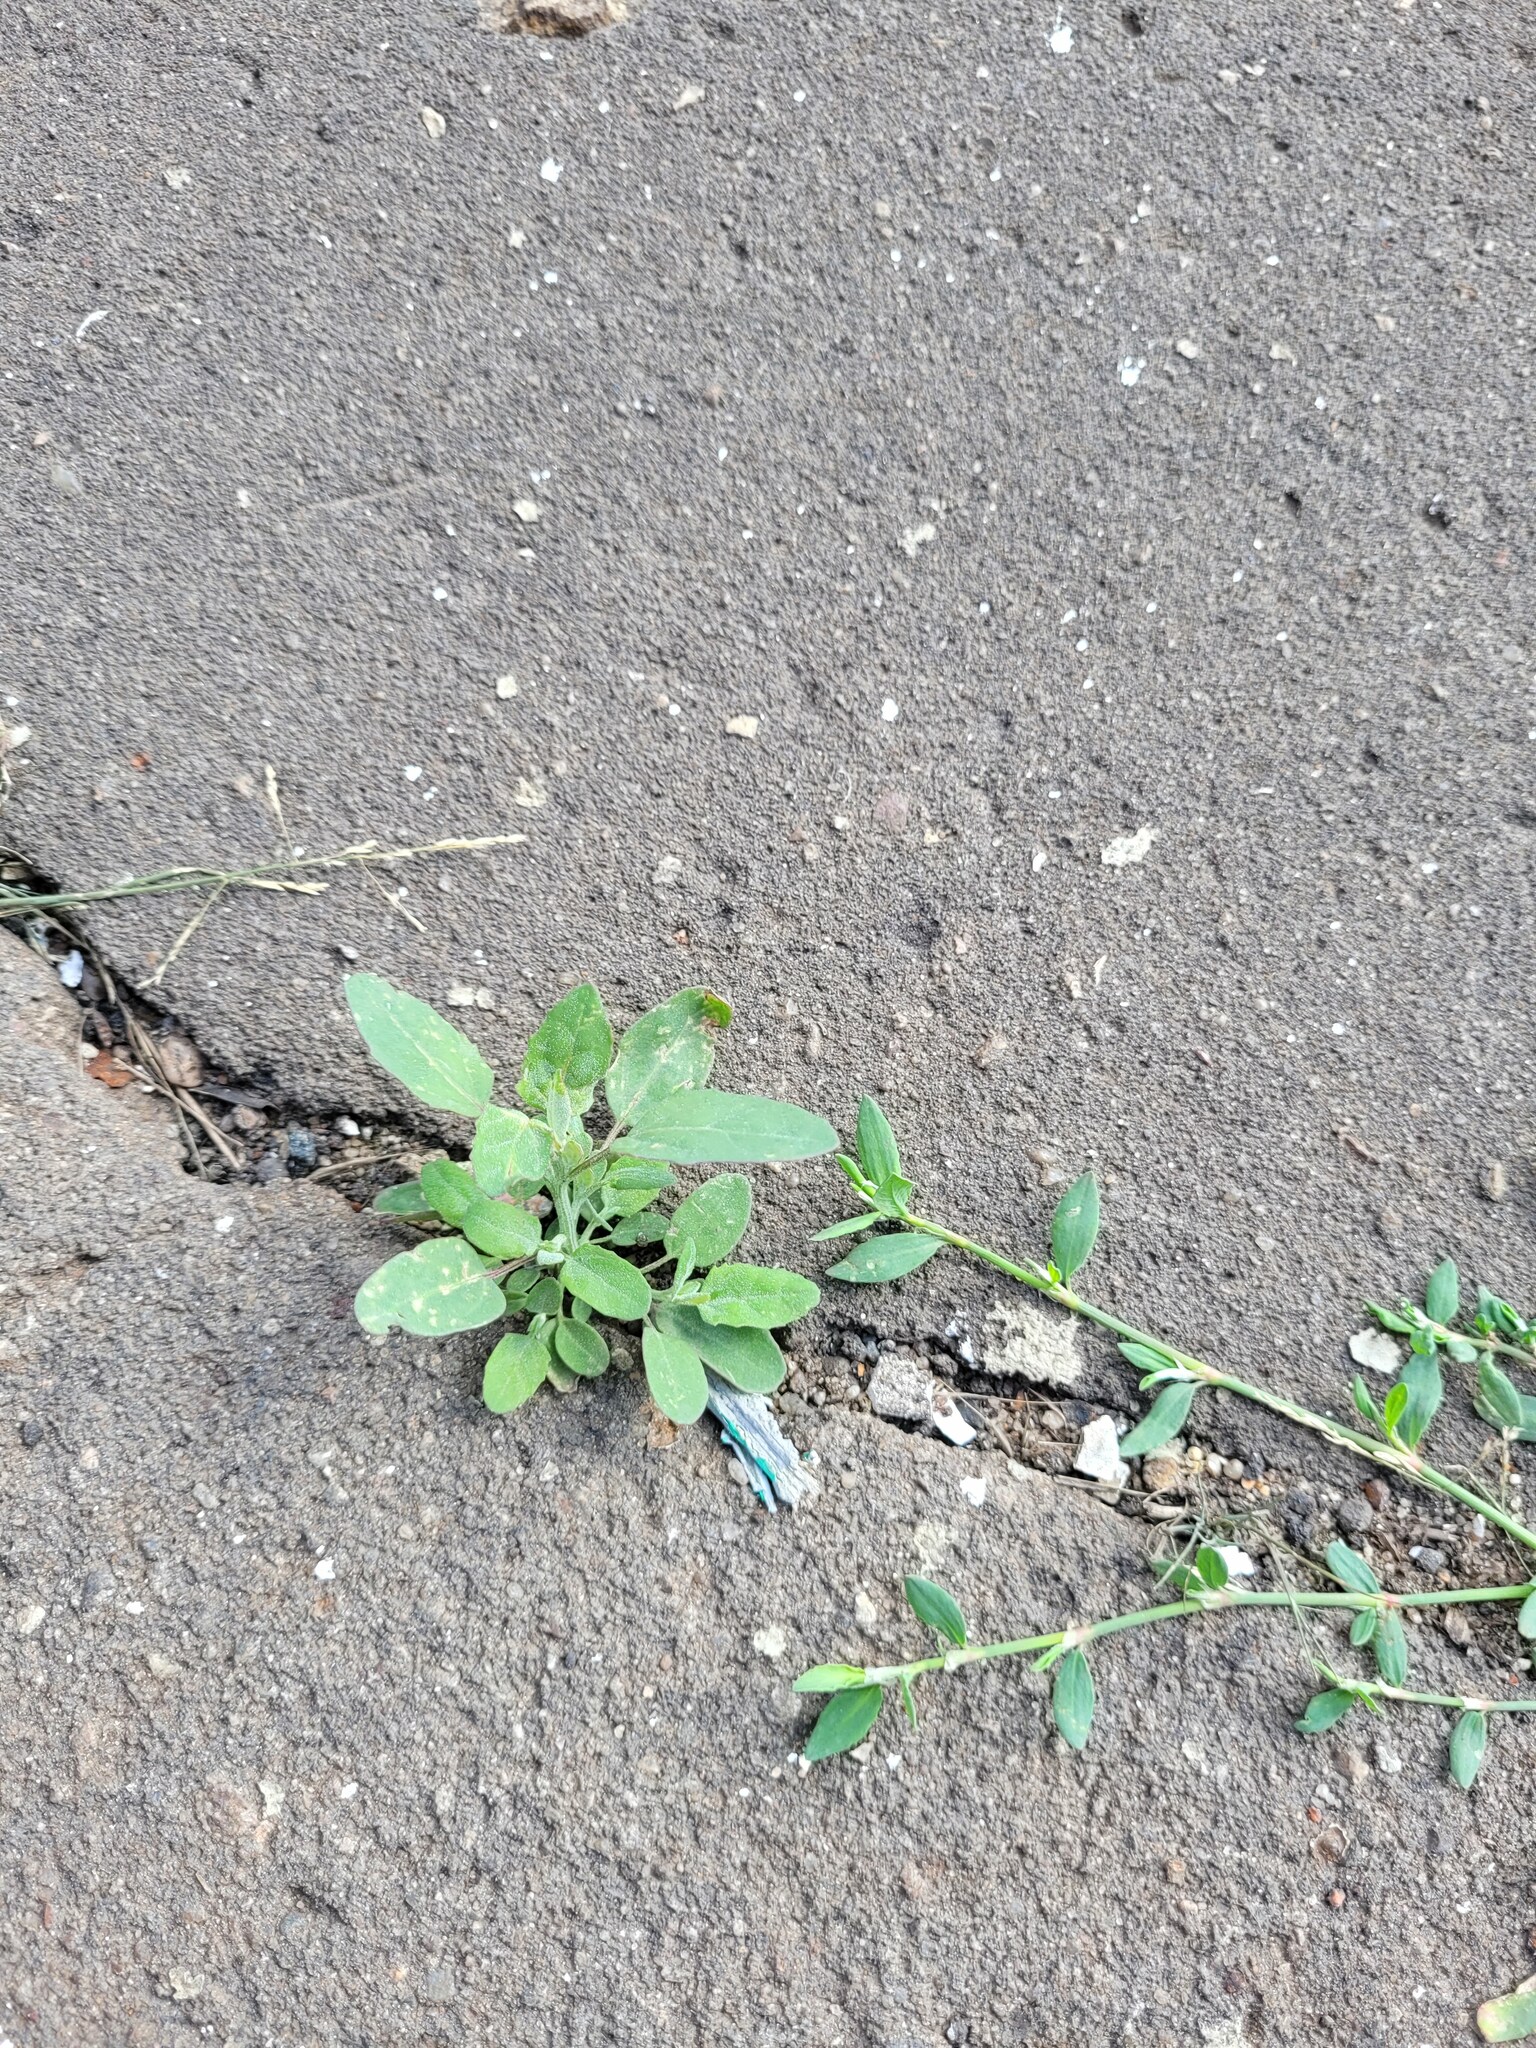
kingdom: Plantae
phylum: Tracheophyta
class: Magnoliopsida
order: Caryophyllales
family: Amaranthaceae
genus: Atriplex
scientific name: Atriplex patula
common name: Common orache
